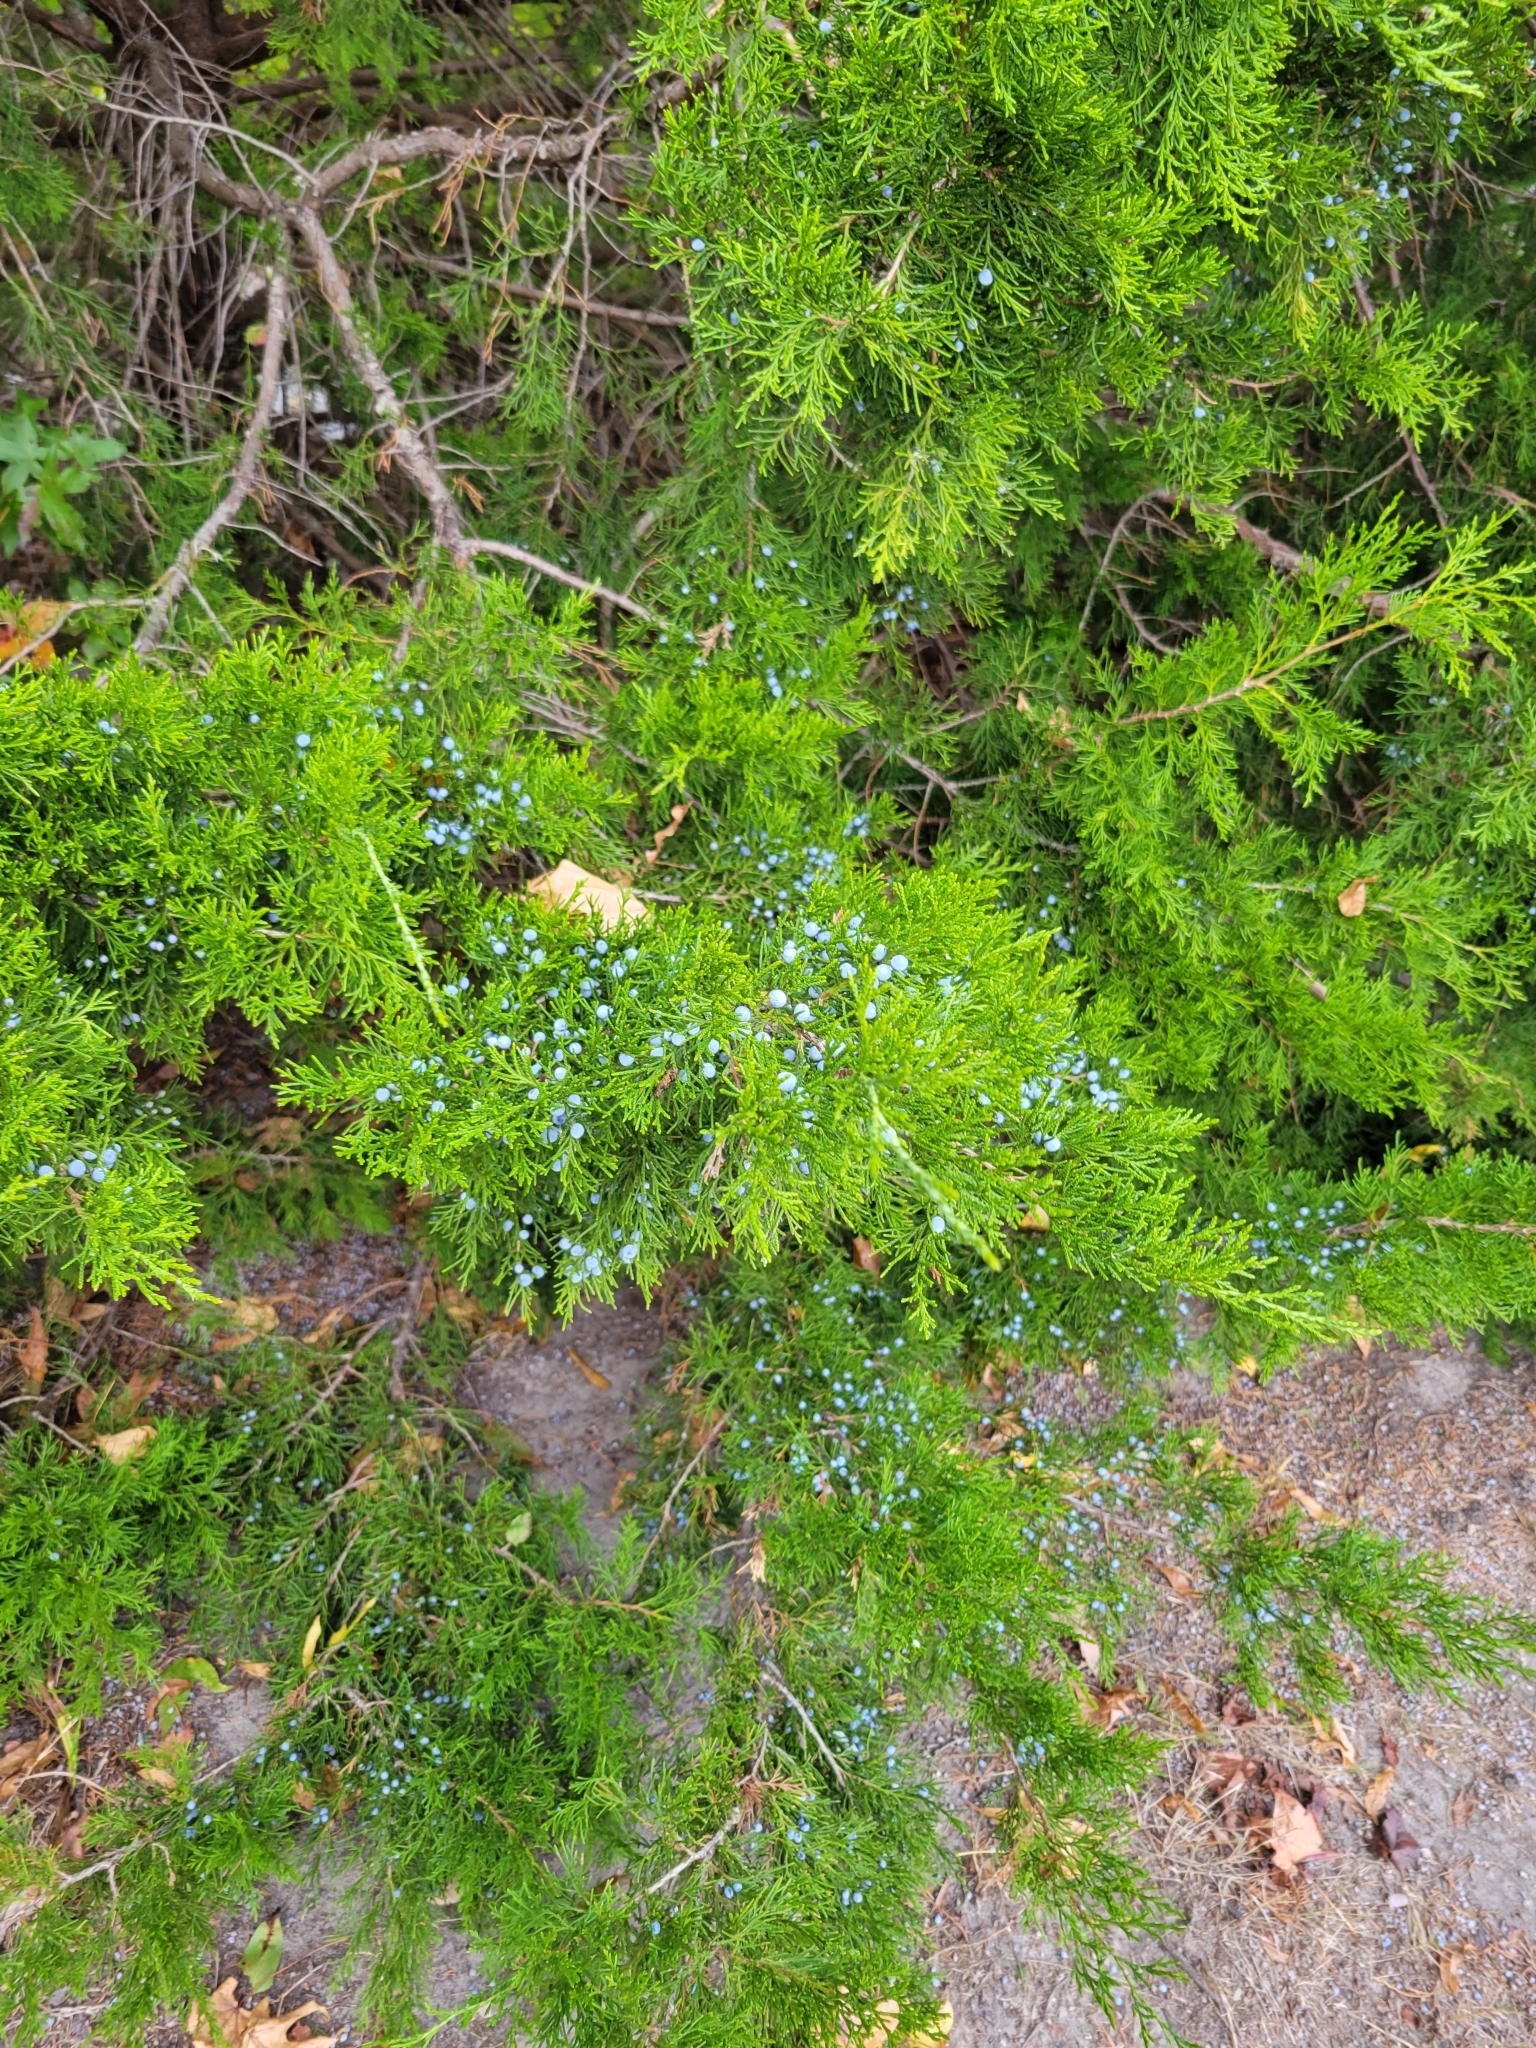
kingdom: Plantae
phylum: Tracheophyta
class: Pinopsida
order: Pinales
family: Cupressaceae
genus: Juniperus
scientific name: Juniperus virginiana
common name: Red juniper
